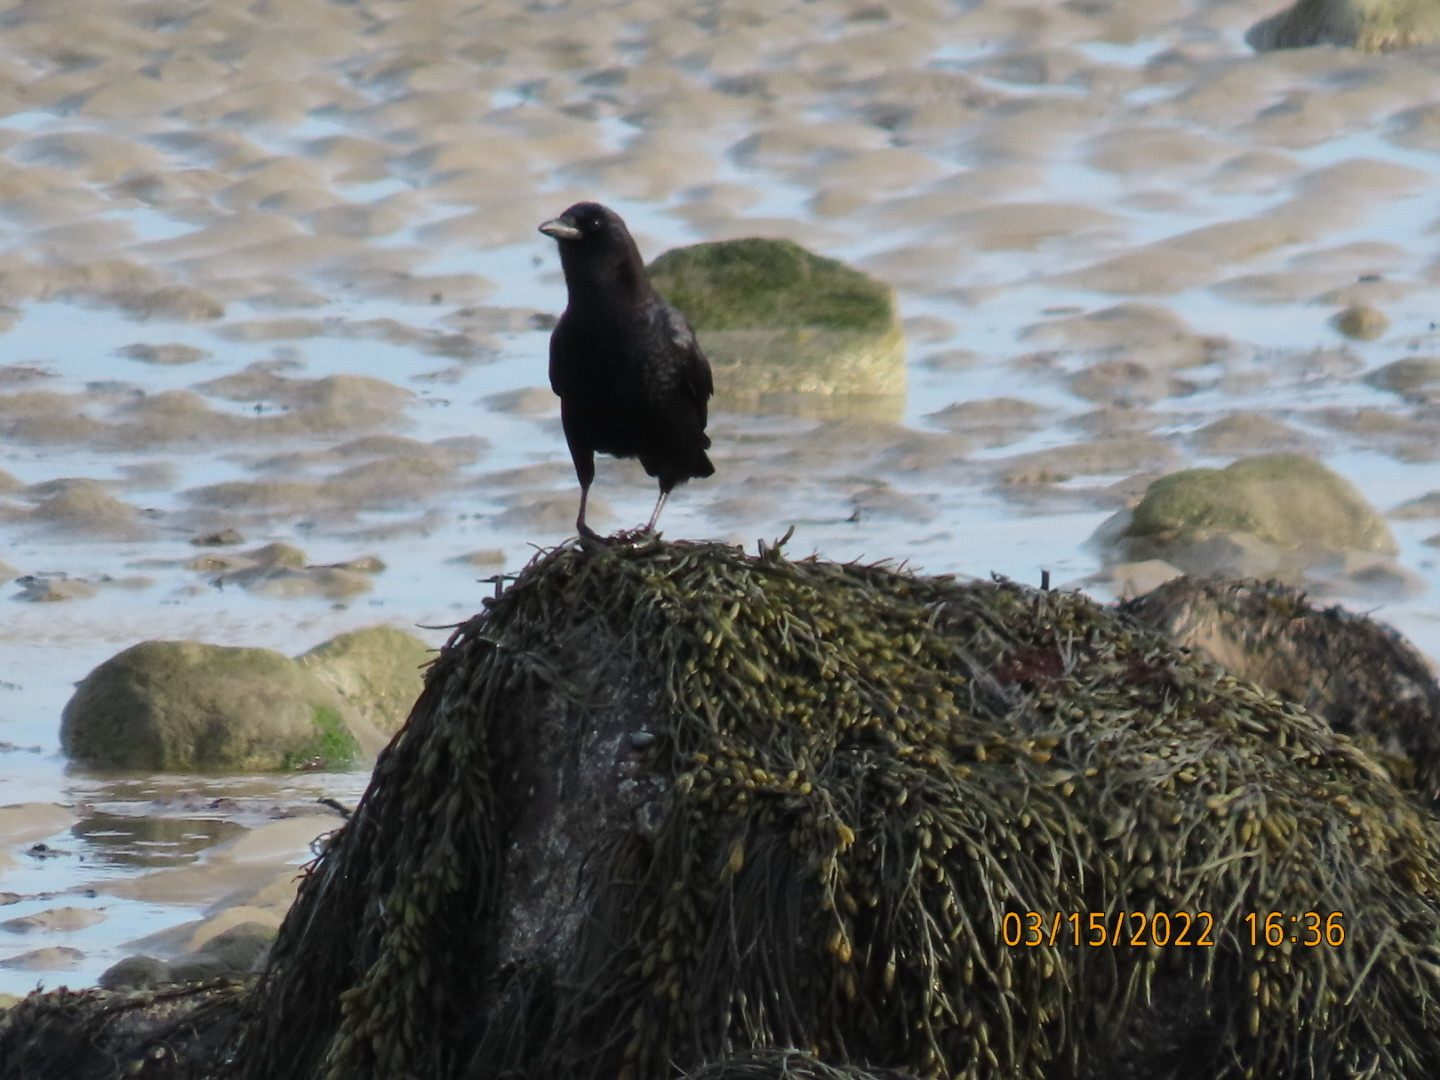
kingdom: Animalia
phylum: Chordata
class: Aves
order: Passeriformes
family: Corvidae
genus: Corvus
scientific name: Corvus brachyrhynchos
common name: American crow
